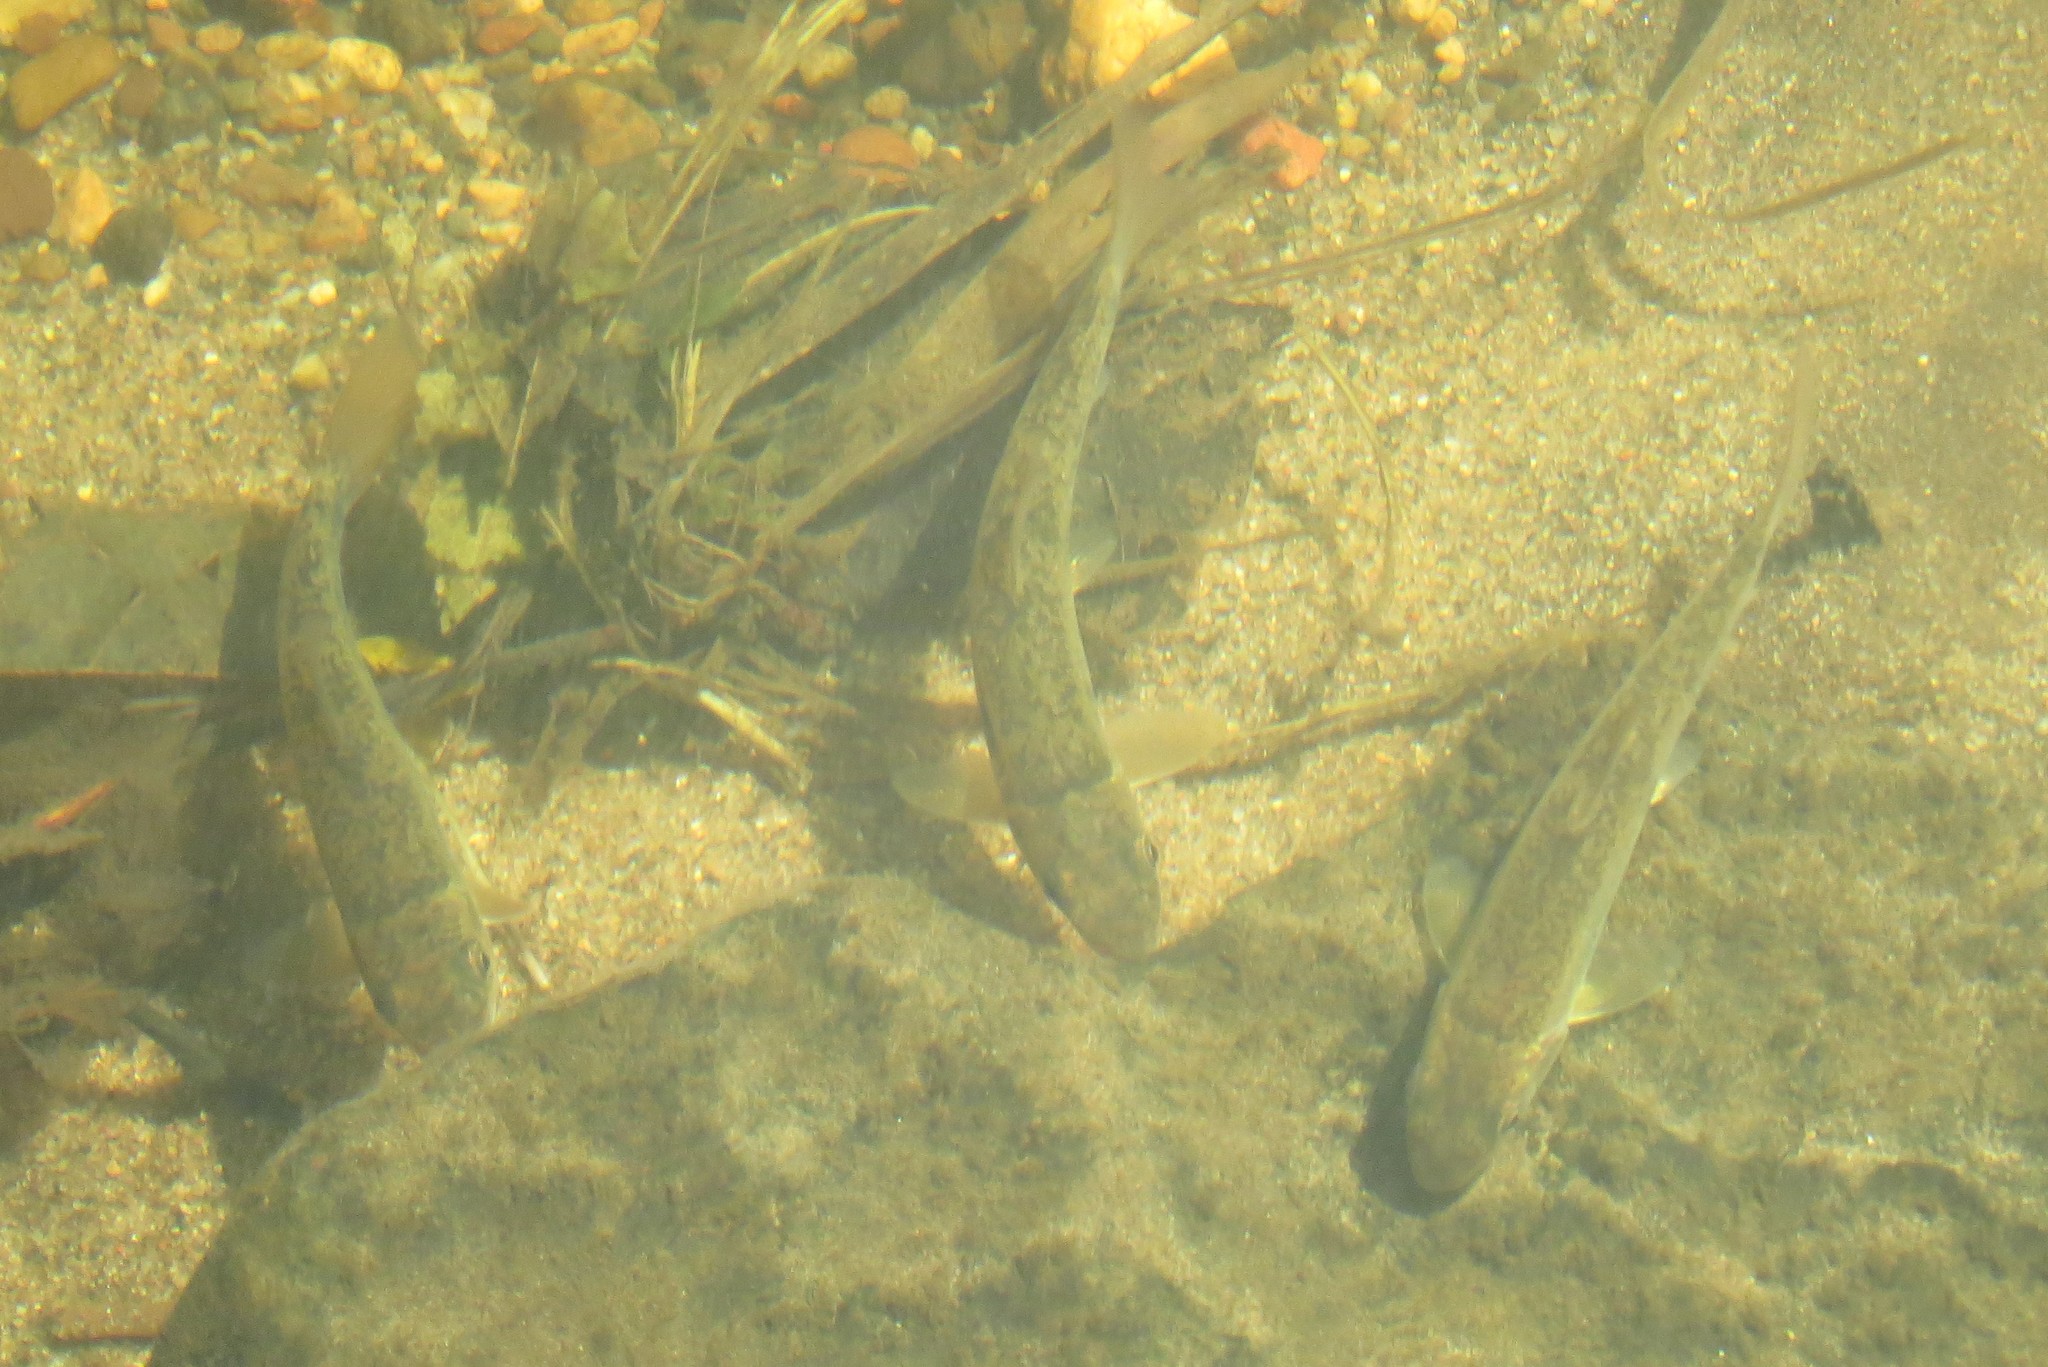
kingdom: Animalia
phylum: Chordata
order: Cypriniformes
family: Catostomidae
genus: Catostomus
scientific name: Catostomus commersonii
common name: White sucker
